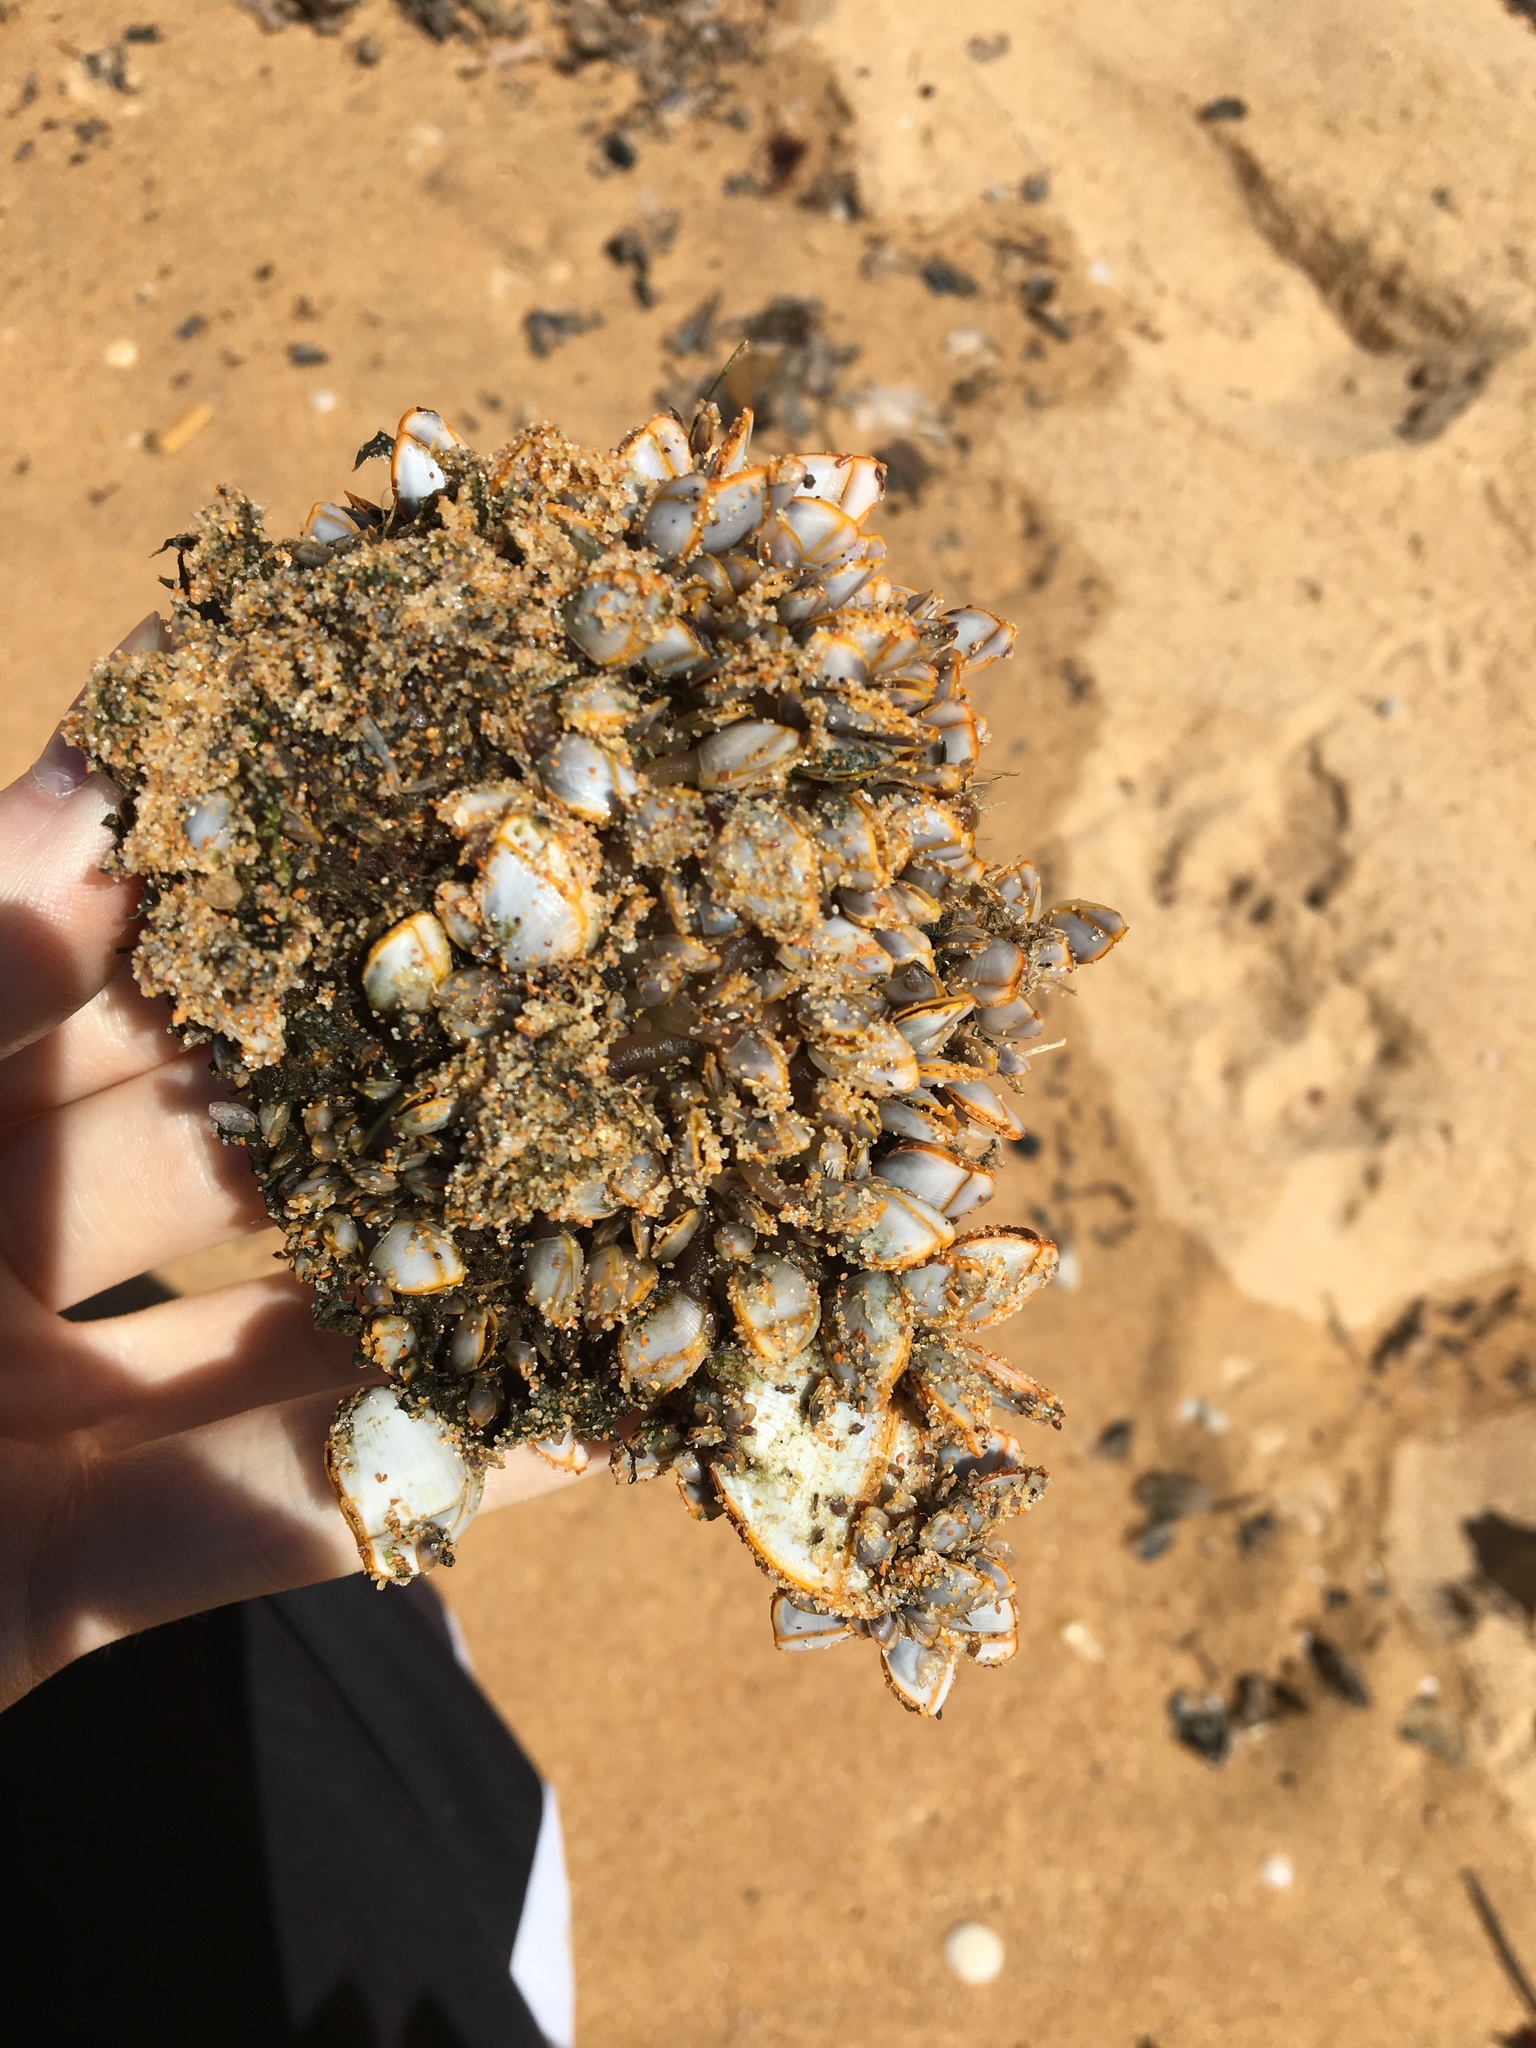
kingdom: Animalia
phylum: Arthropoda
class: Maxillopoda
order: Pedunculata
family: Lepadidae
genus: Lepas
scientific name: Lepas anserifera
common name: Goose barnacle
